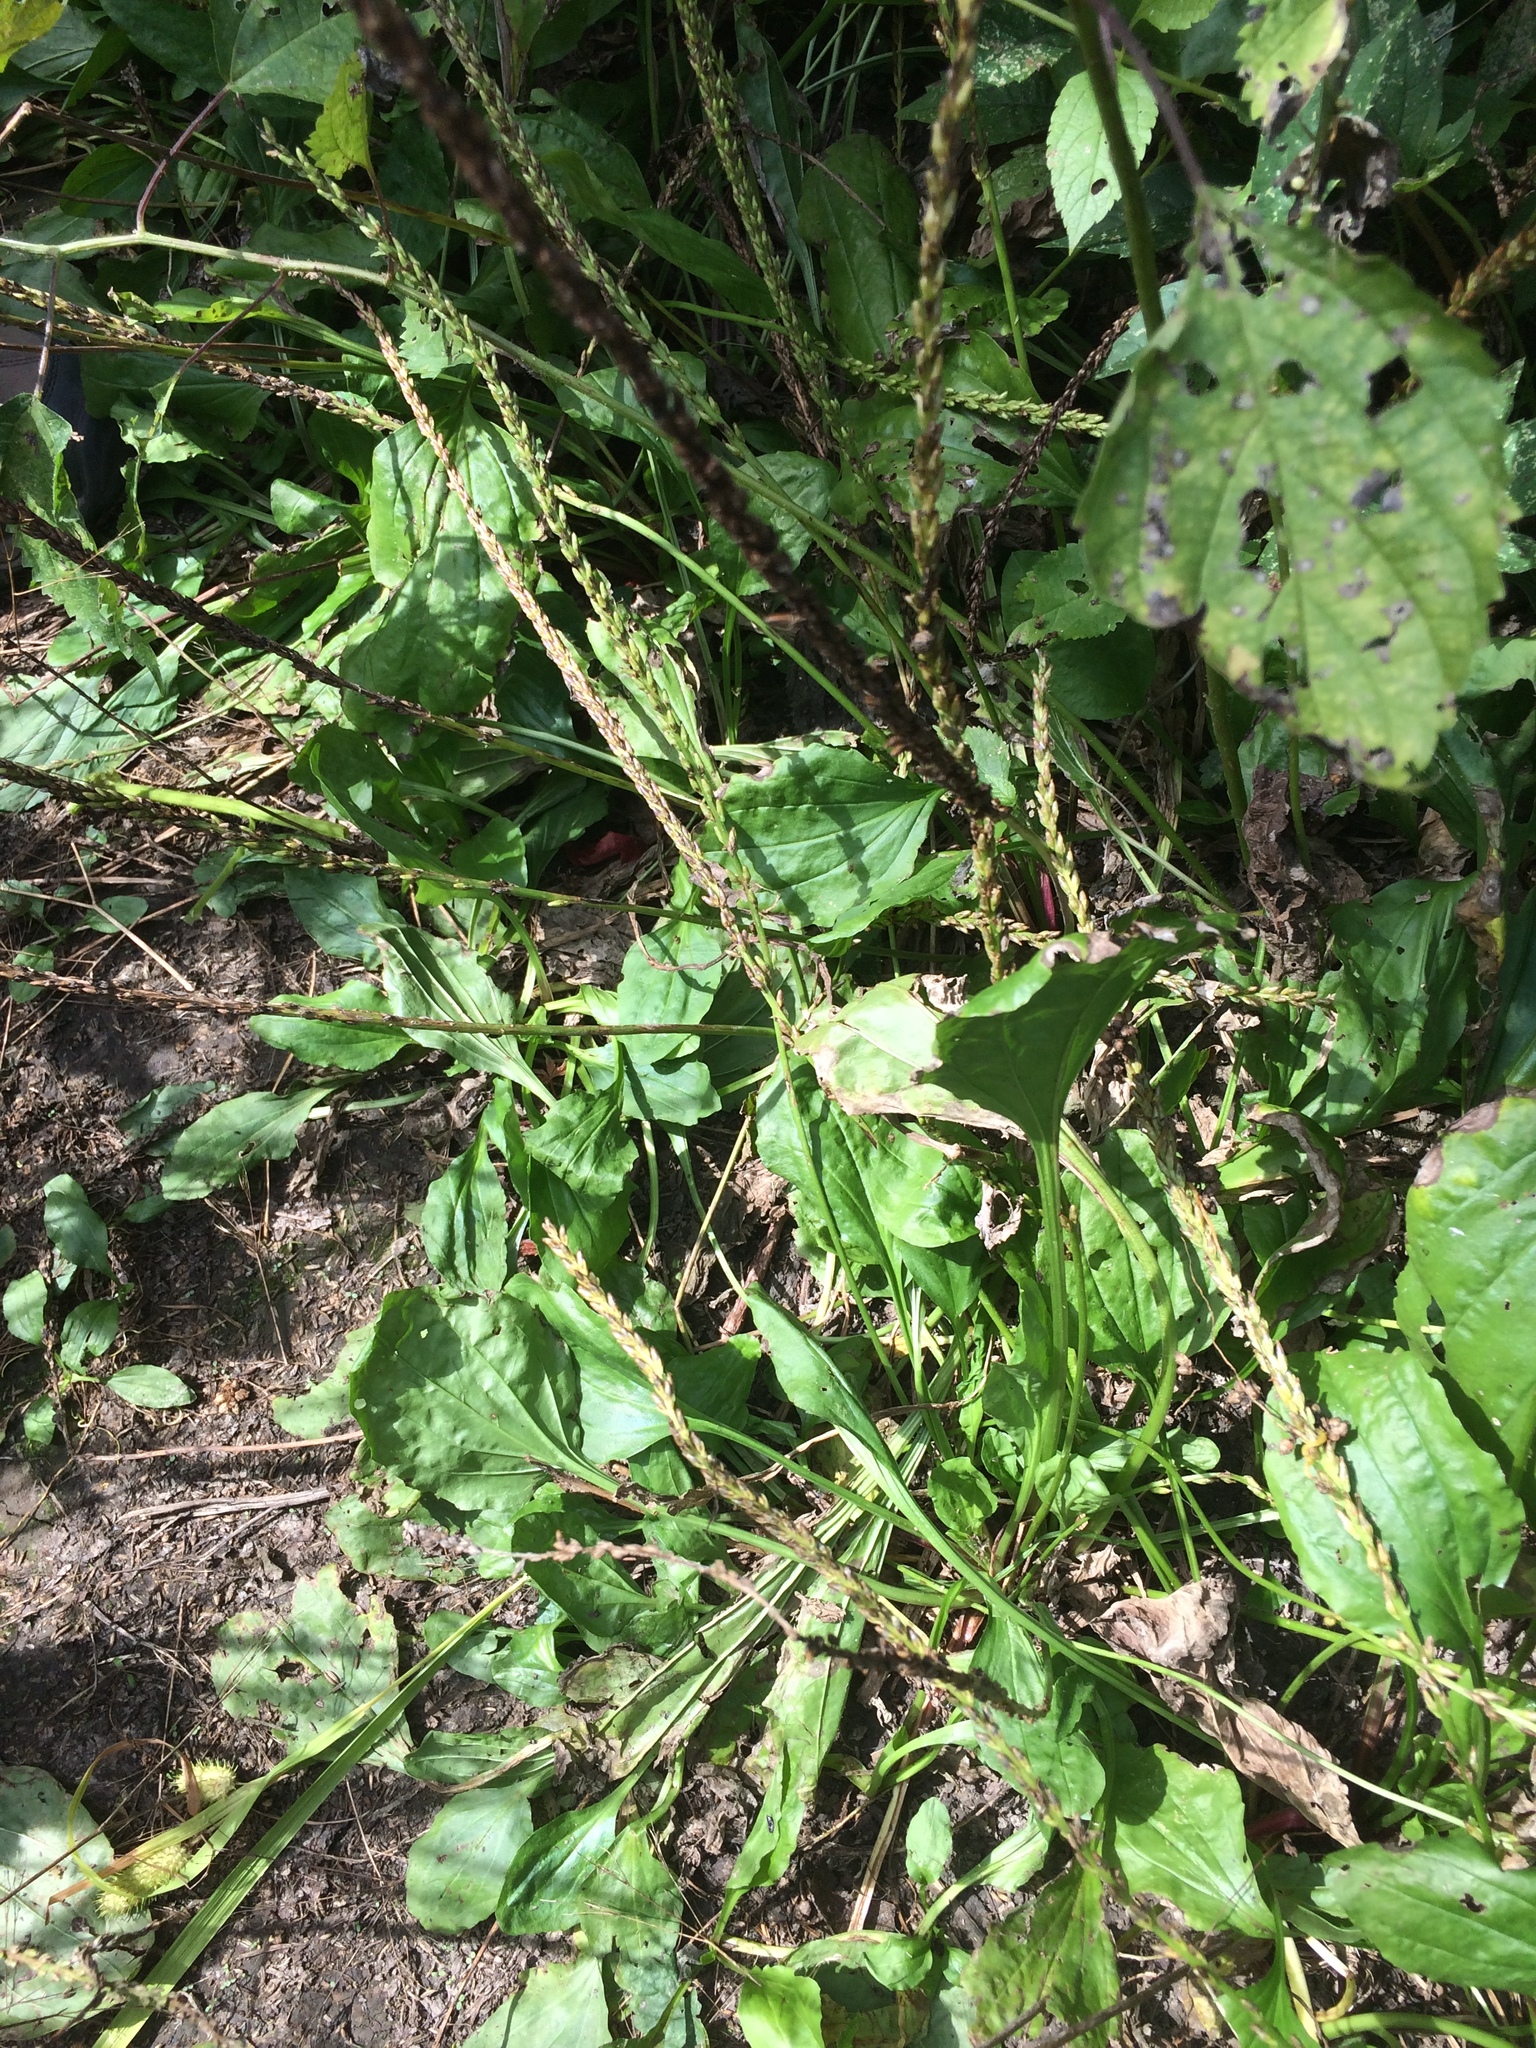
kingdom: Plantae
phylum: Tracheophyta
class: Magnoliopsida
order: Lamiales
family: Plantaginaceae
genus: Plantago
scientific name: Plantago rugelii
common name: American plantain
